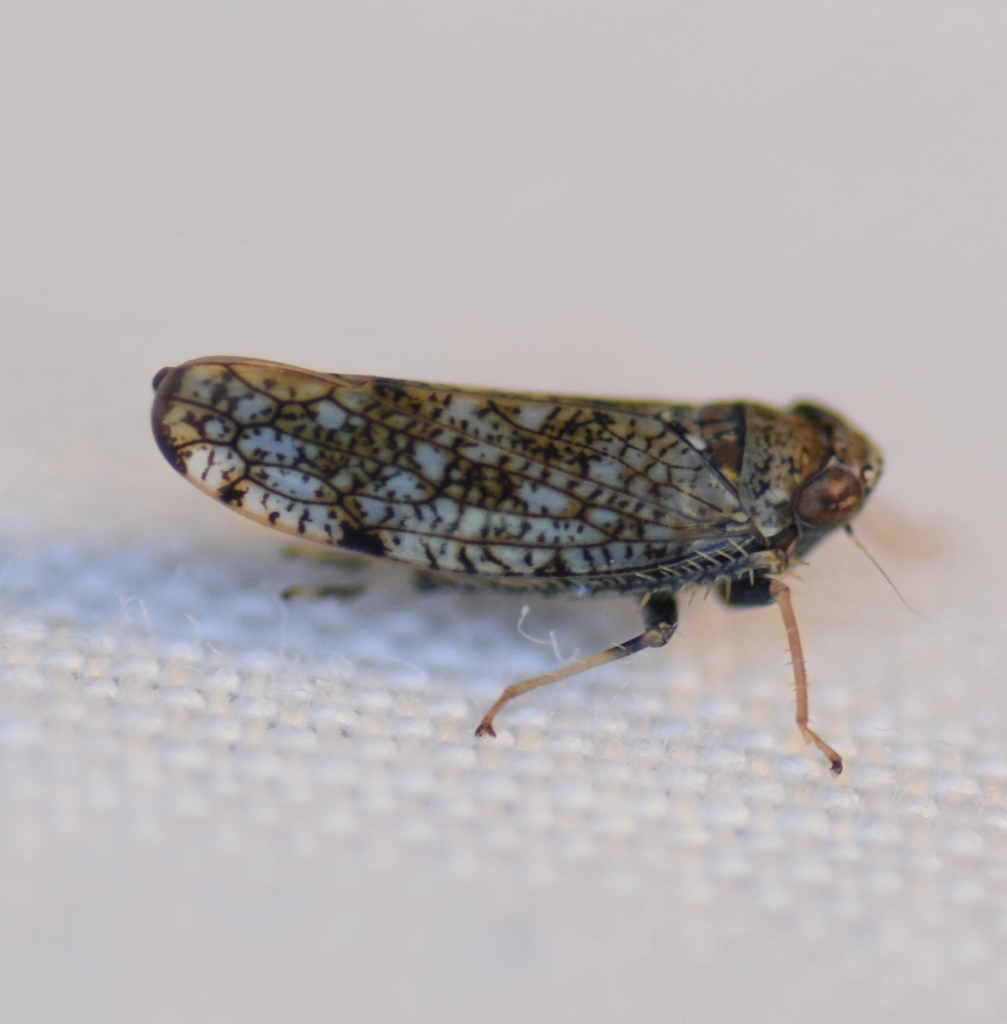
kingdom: Animalia
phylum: Arthropoda
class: Insecta
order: Hemiptera
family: Cicadellidae
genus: Orientus
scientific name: Orientus ishidae
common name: Japanese leafhopper
